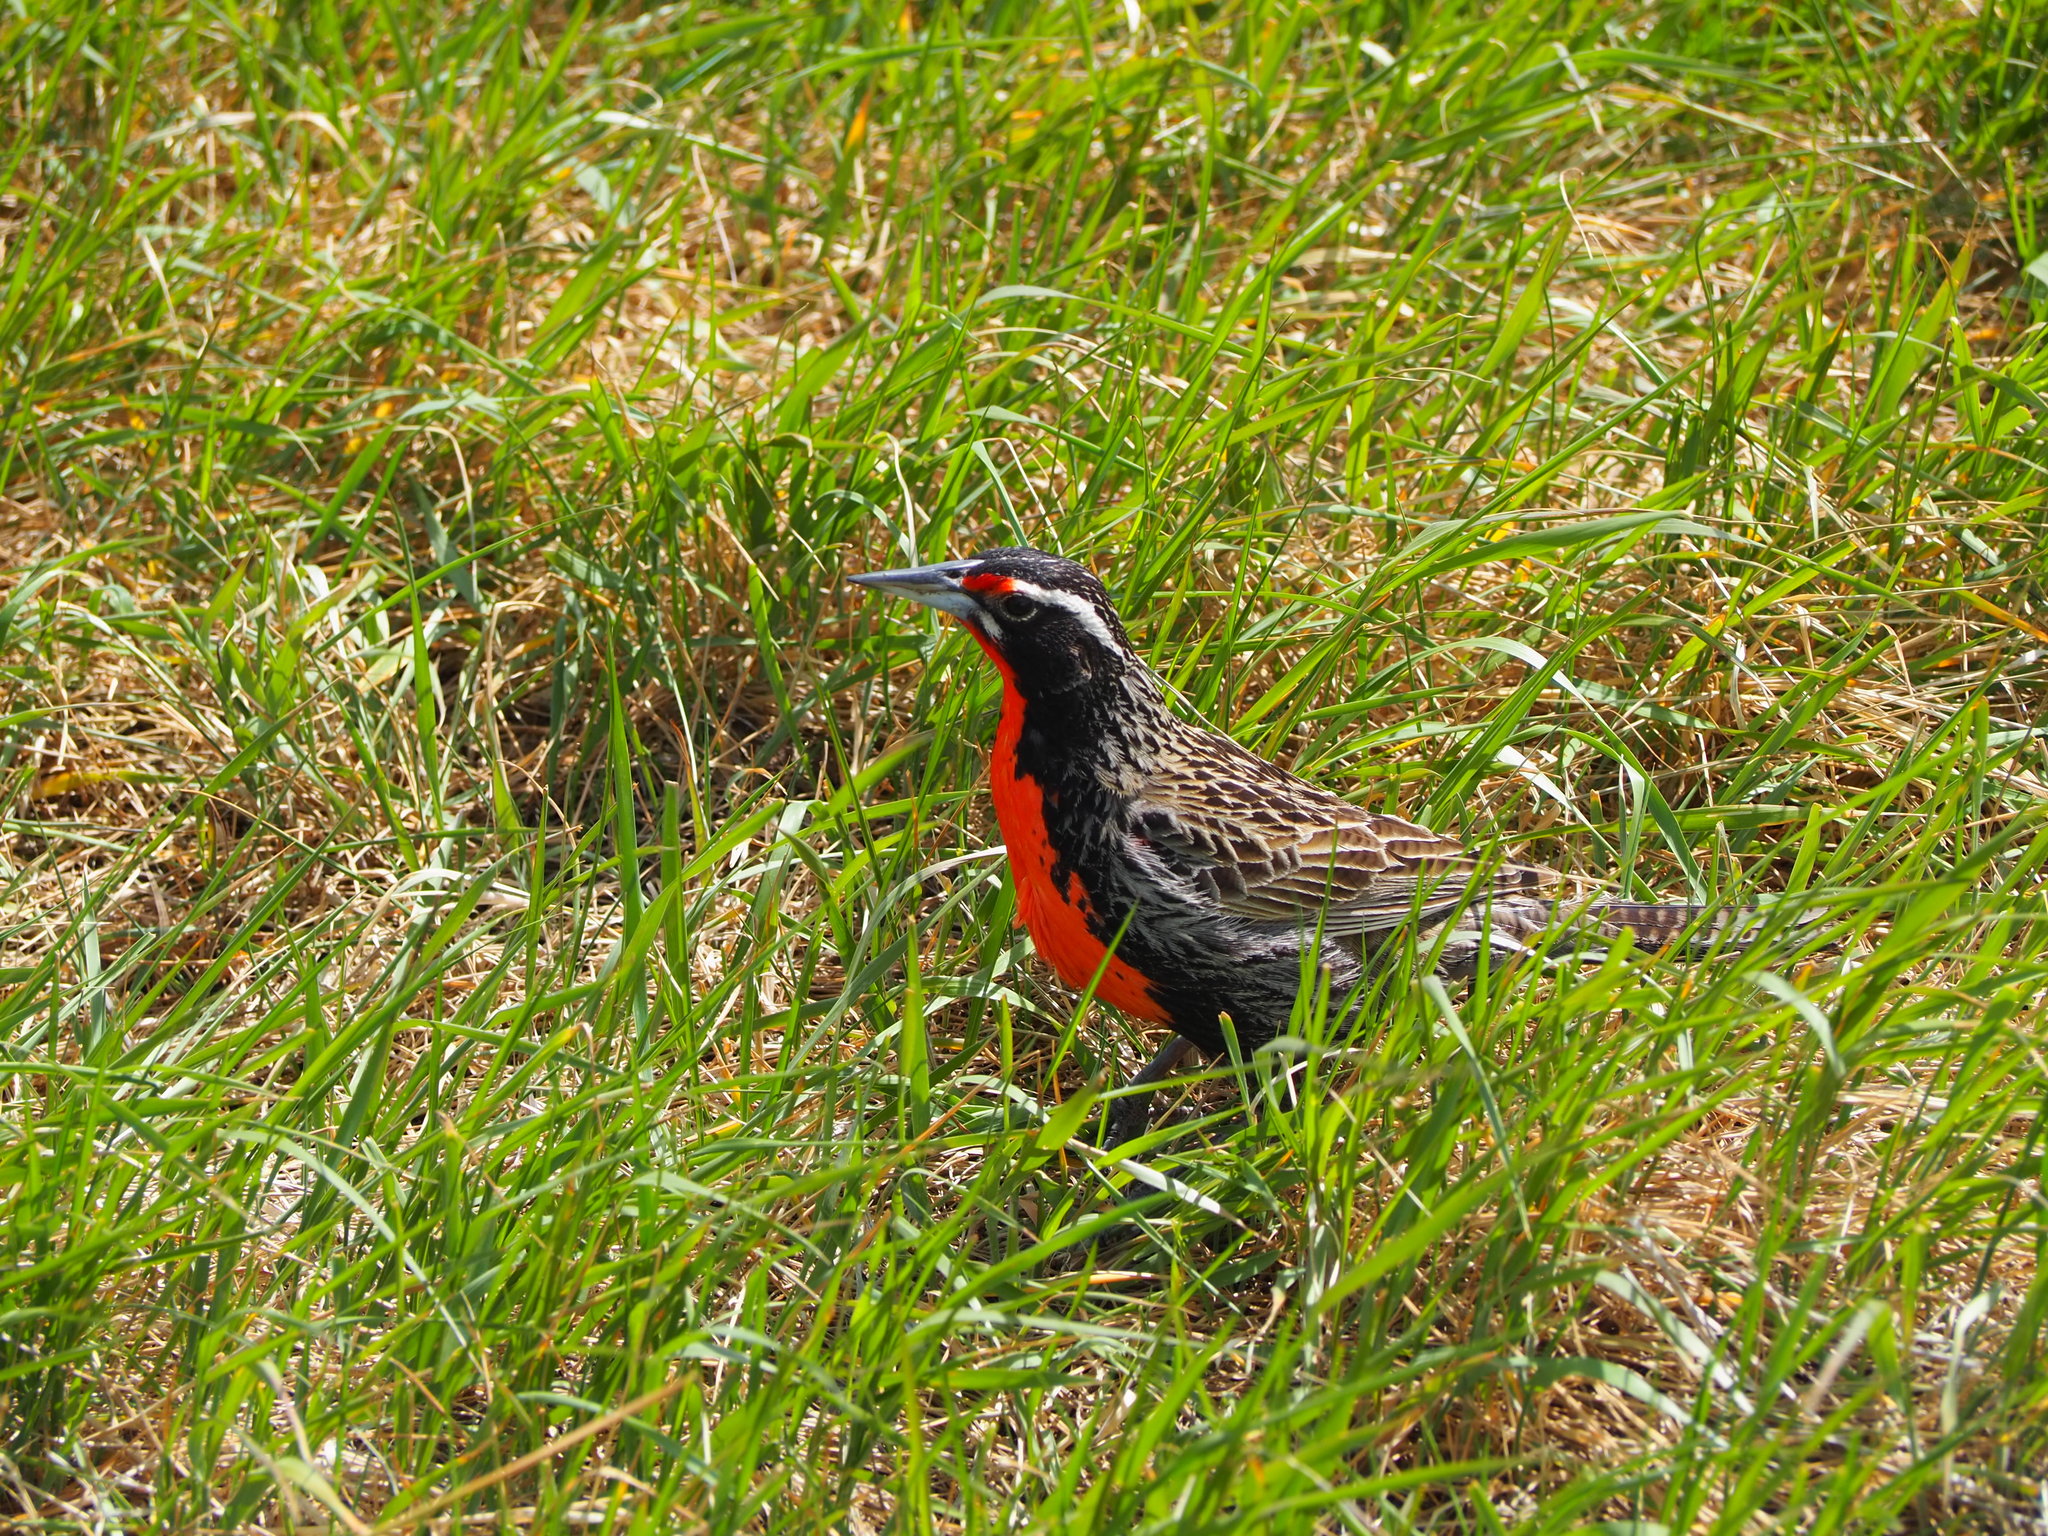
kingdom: Animalia
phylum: Chordata
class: Aves
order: Passeriformes
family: Icteridae
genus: Sturnella
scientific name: Sturnella loyca
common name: Long-tailed meadowlark
